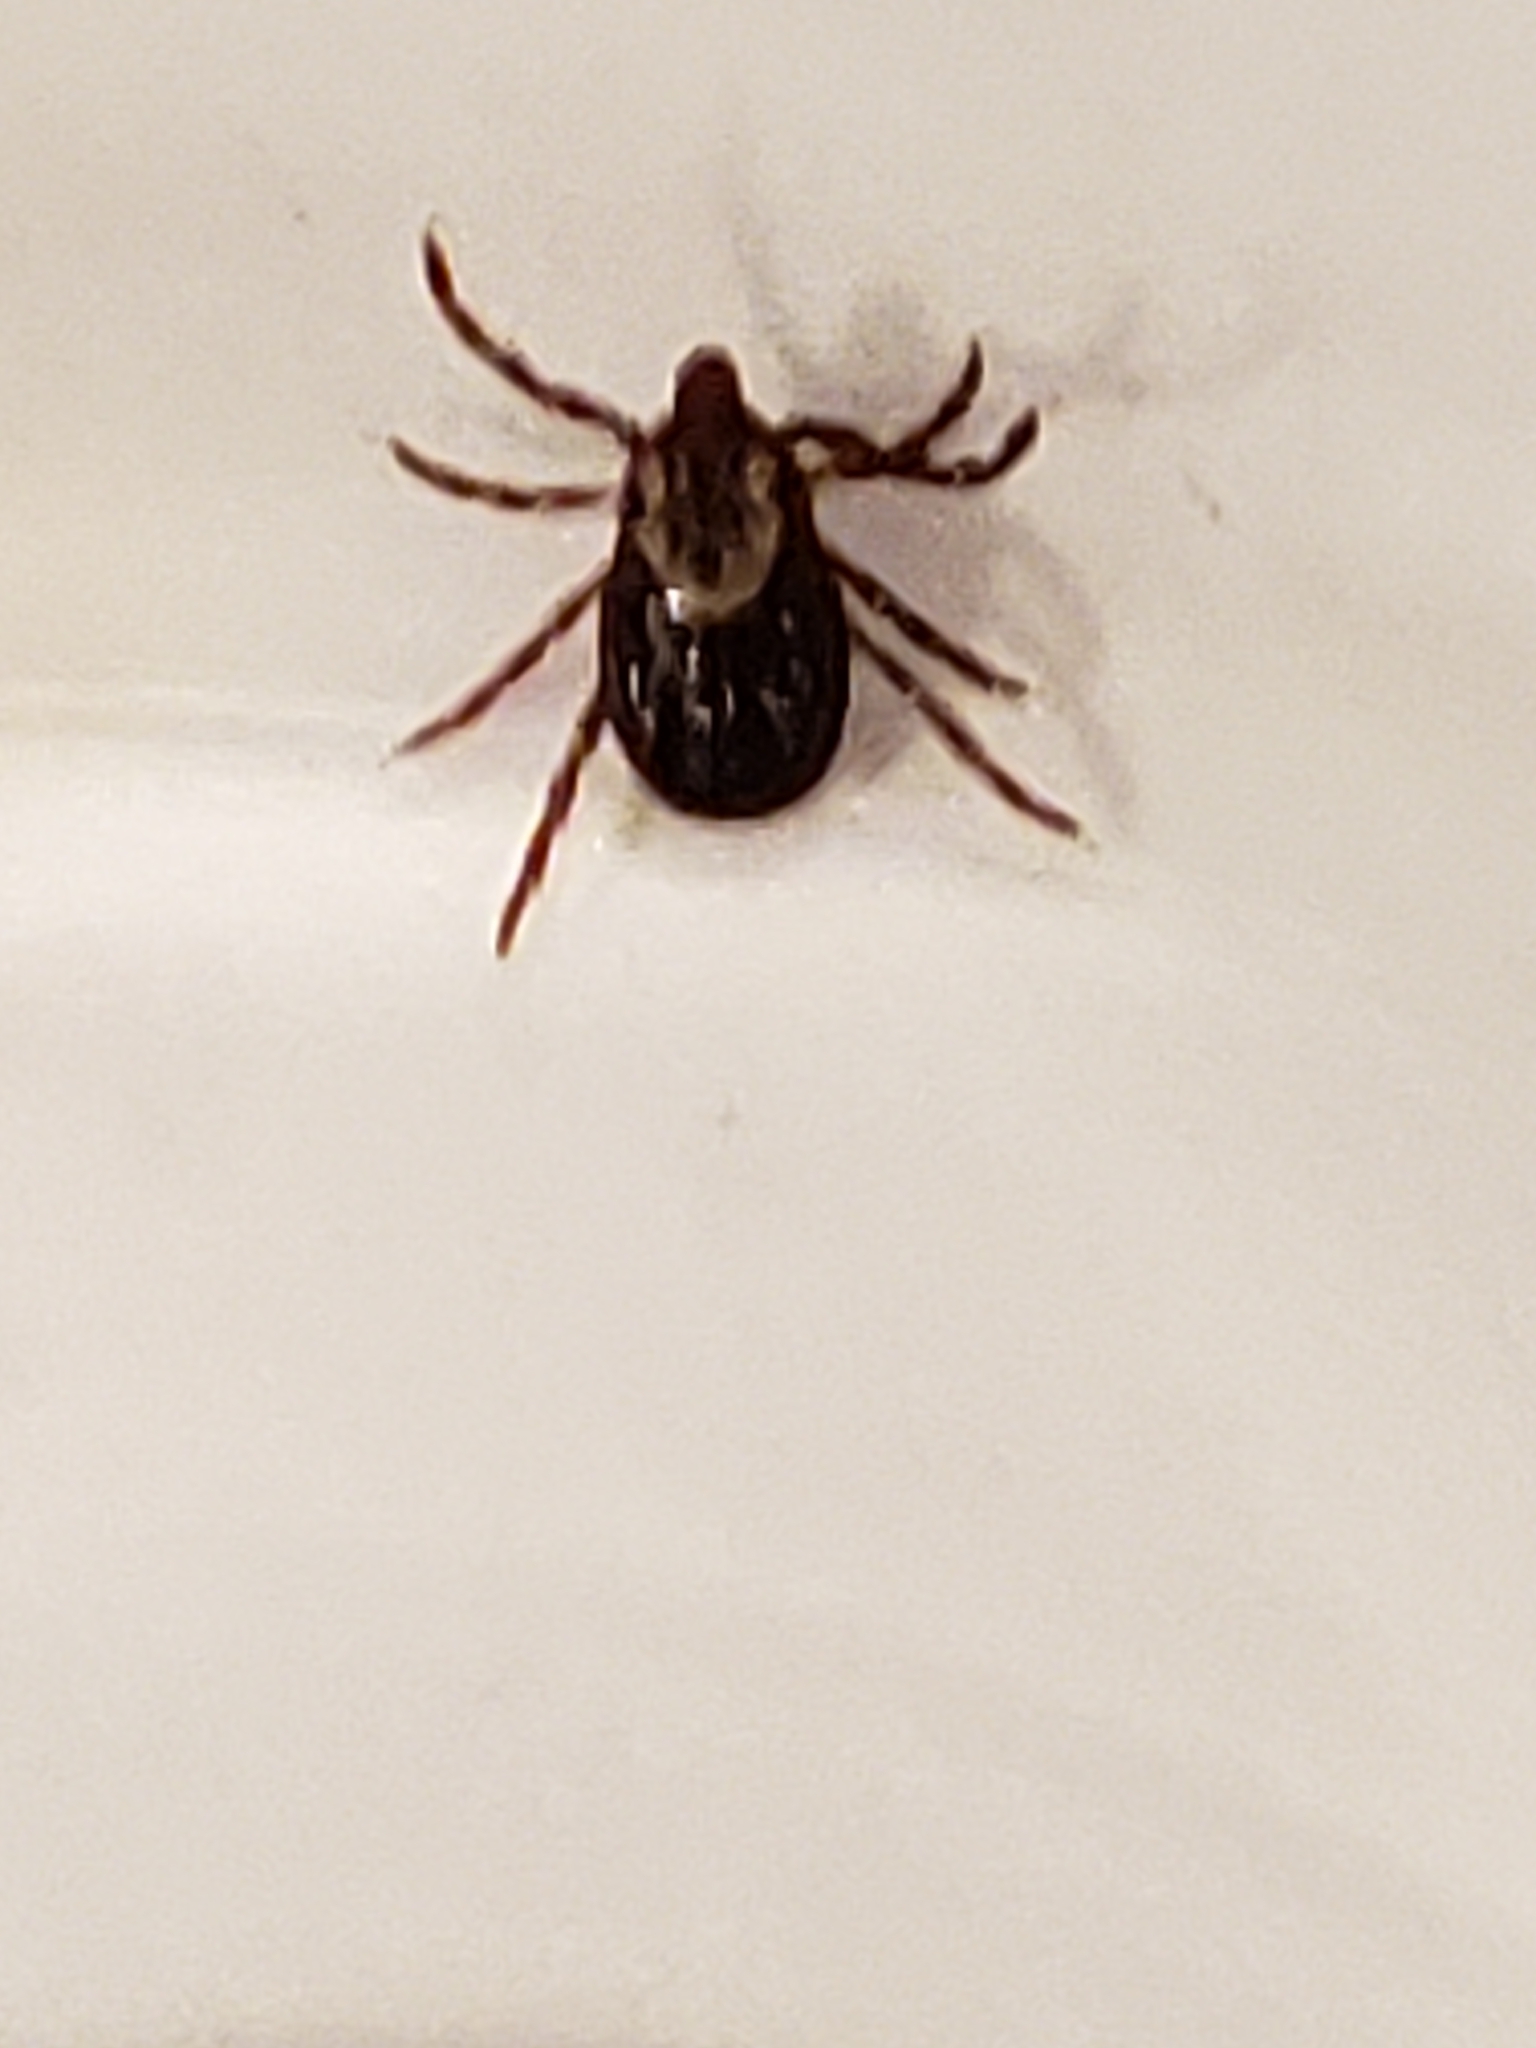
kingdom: Animalia
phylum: Arthropoda
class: Arachnida
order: Ixodida
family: Ixodidae
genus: Dermacentor
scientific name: Dermacentor variabilis
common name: American dog tick
